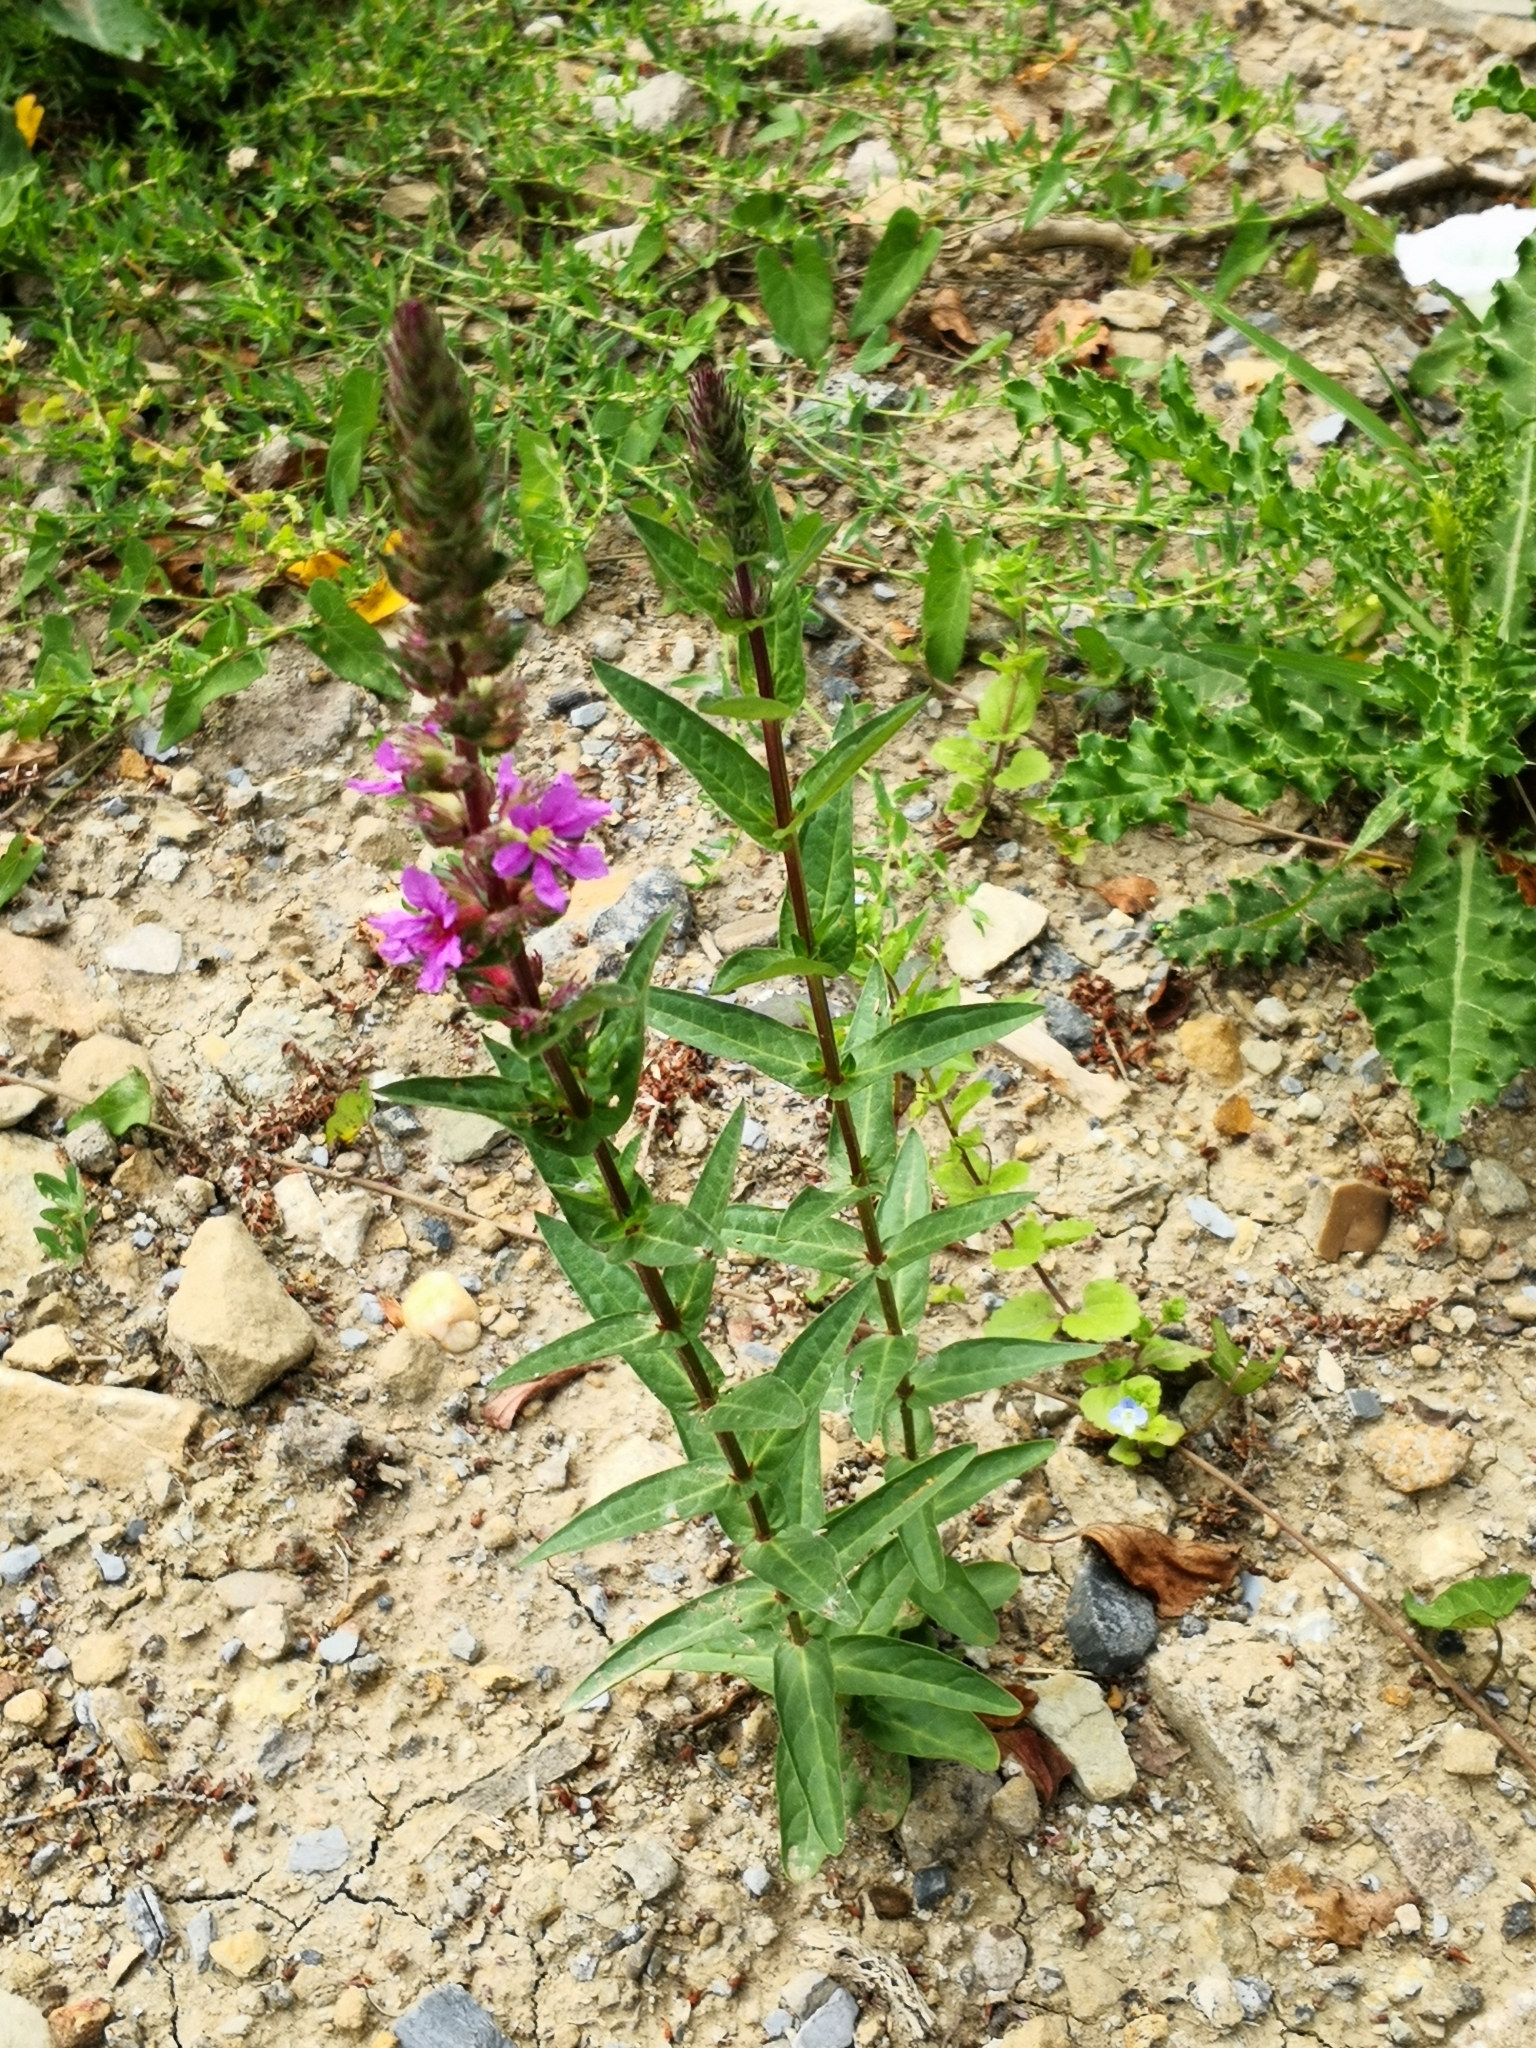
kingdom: Plantae
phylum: Tracheophyta
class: Magnoliopsida
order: Myrtales
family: Lythraceae
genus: Lythrum
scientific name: Lythrum salicaria
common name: Purple loosestrife
